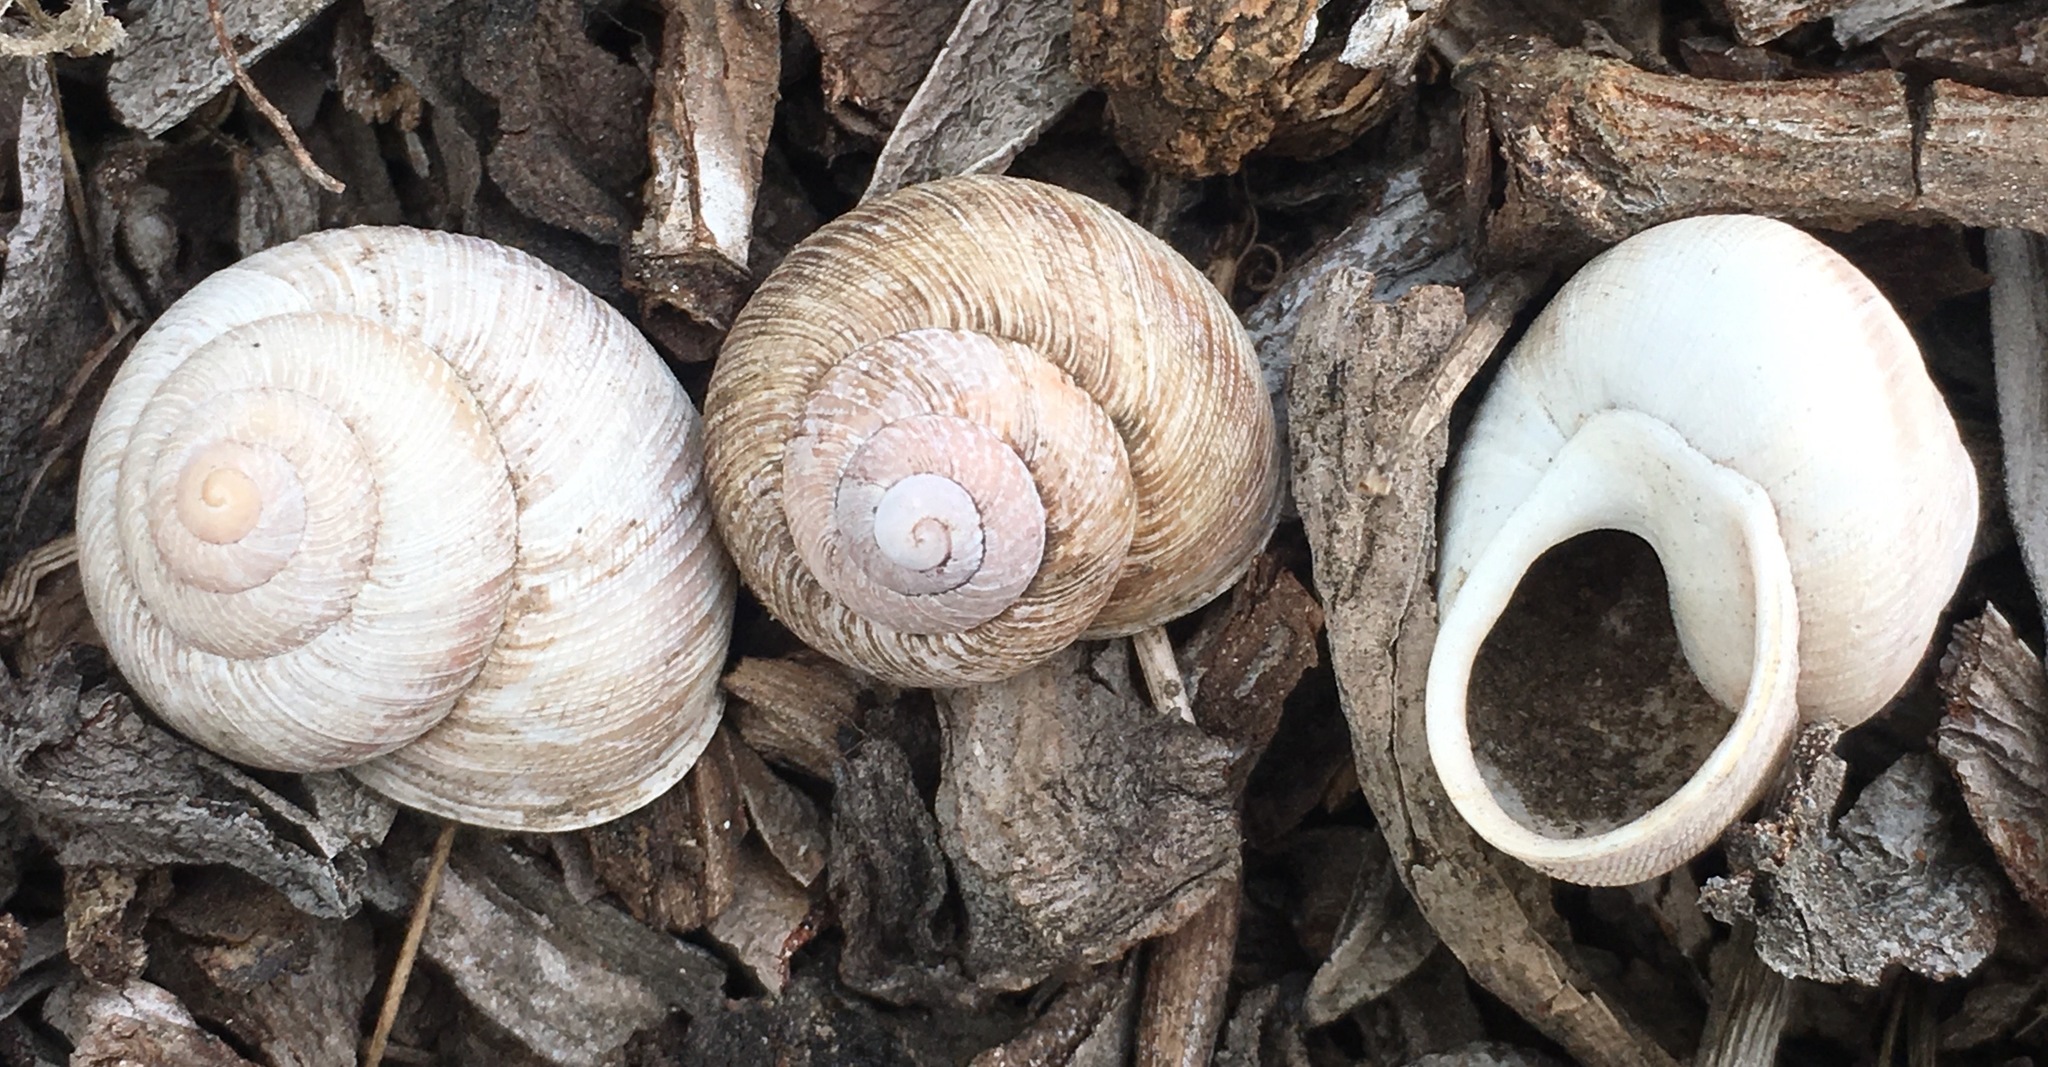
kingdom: Animalia
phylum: Mollusca
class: Gastropoda
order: Stylommatophora
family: Xanthonychidae
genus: Xerarionta
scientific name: Xerarionta intercisa
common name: Plain cactus snail
